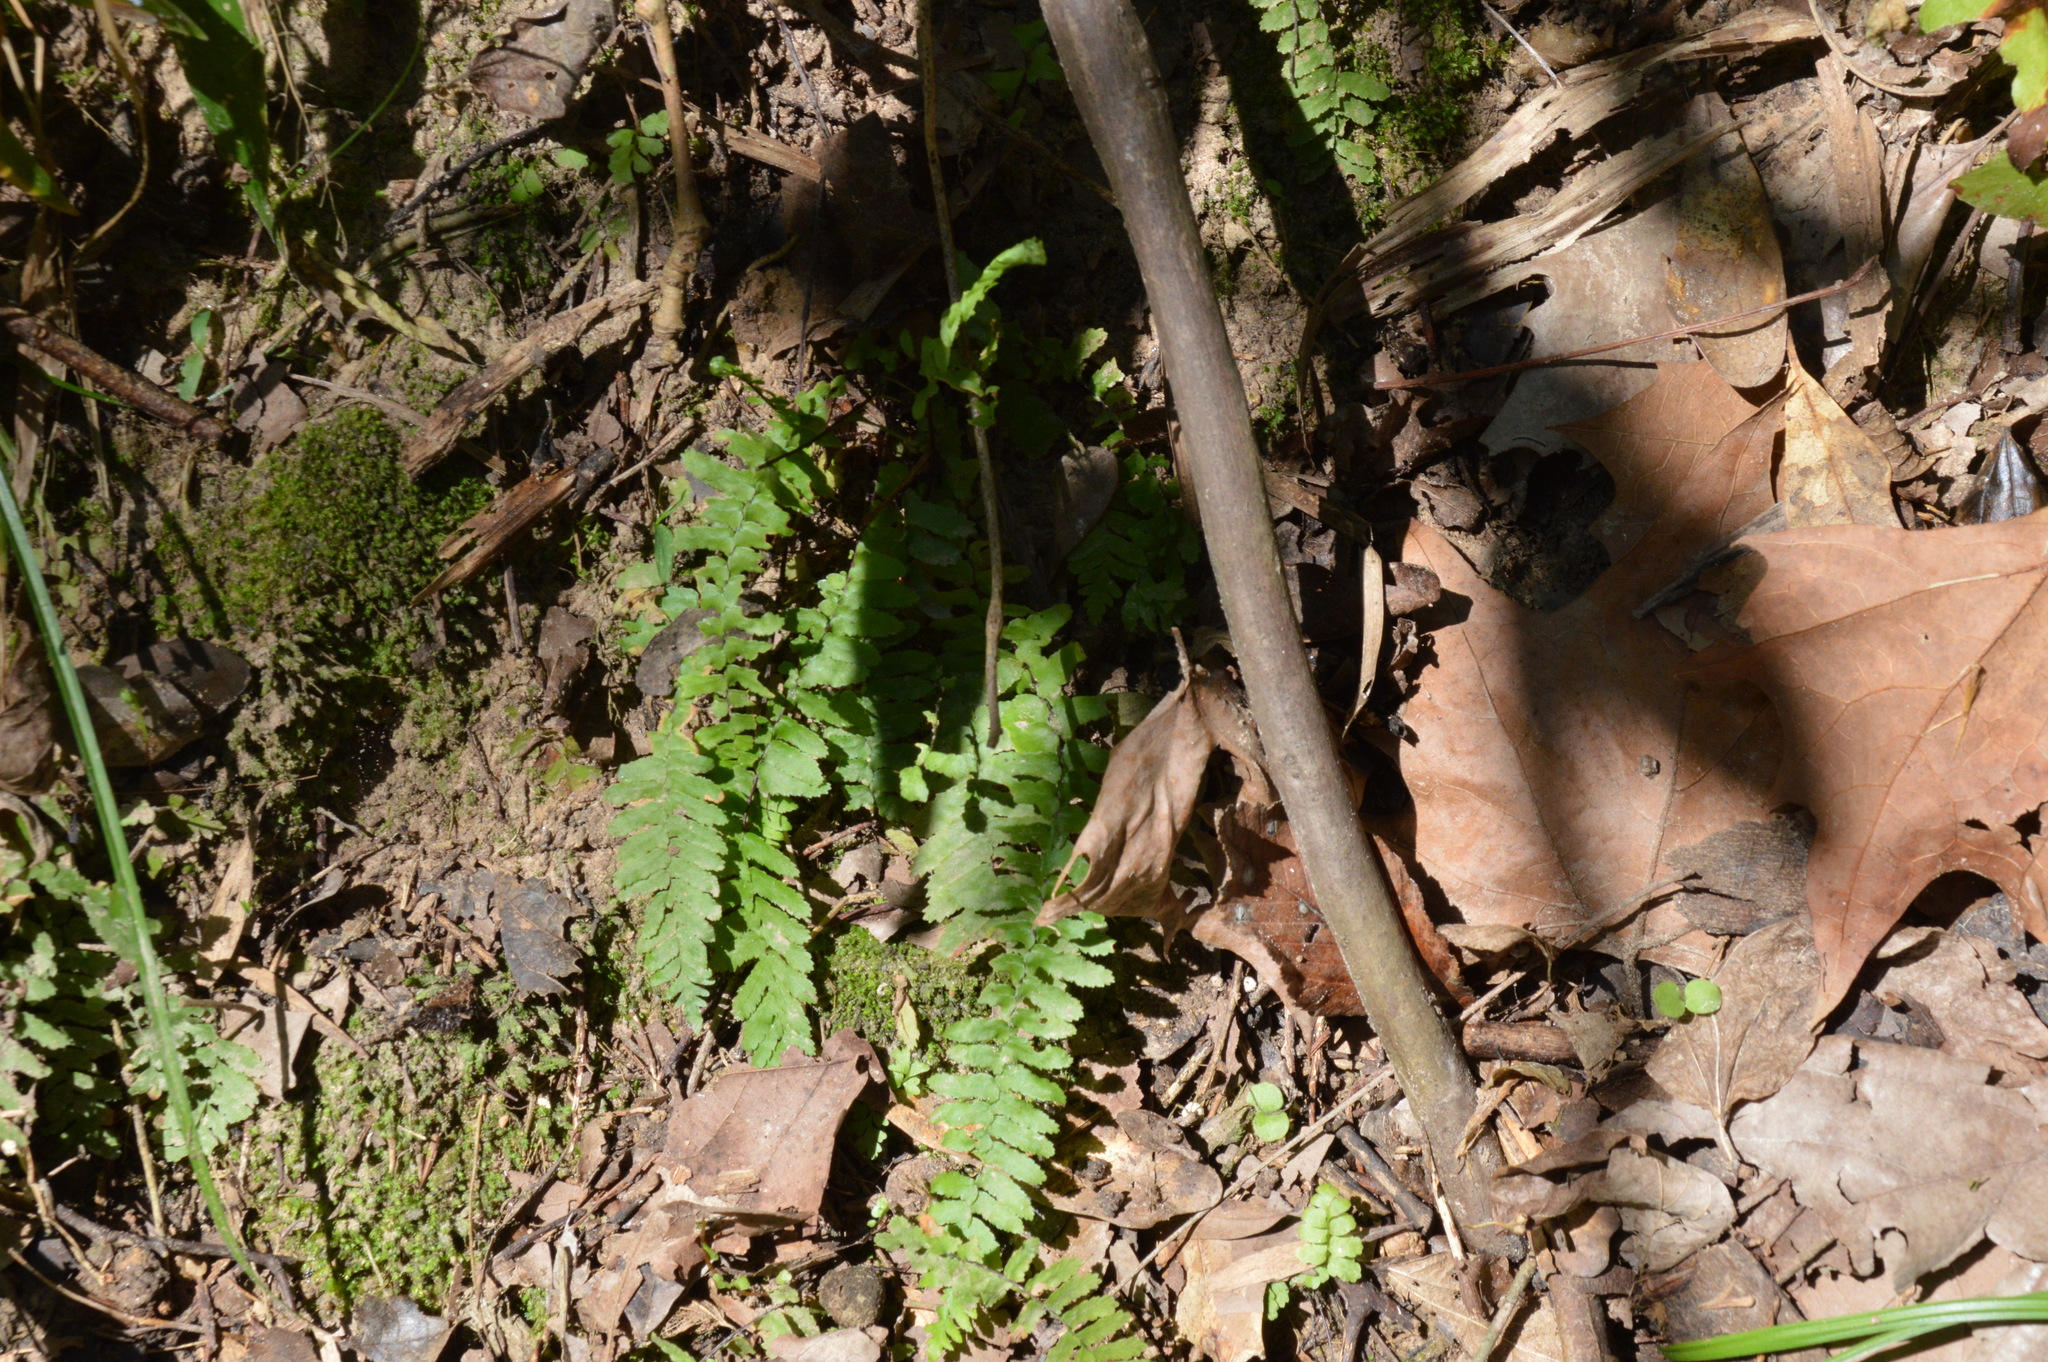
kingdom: Plantae
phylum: Tracheophyta
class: Polypodiopsida
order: Polypodiales
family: Aspleniaceae
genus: Asplenium
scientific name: Asplenium platyneuron
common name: Ebony spleenwort
